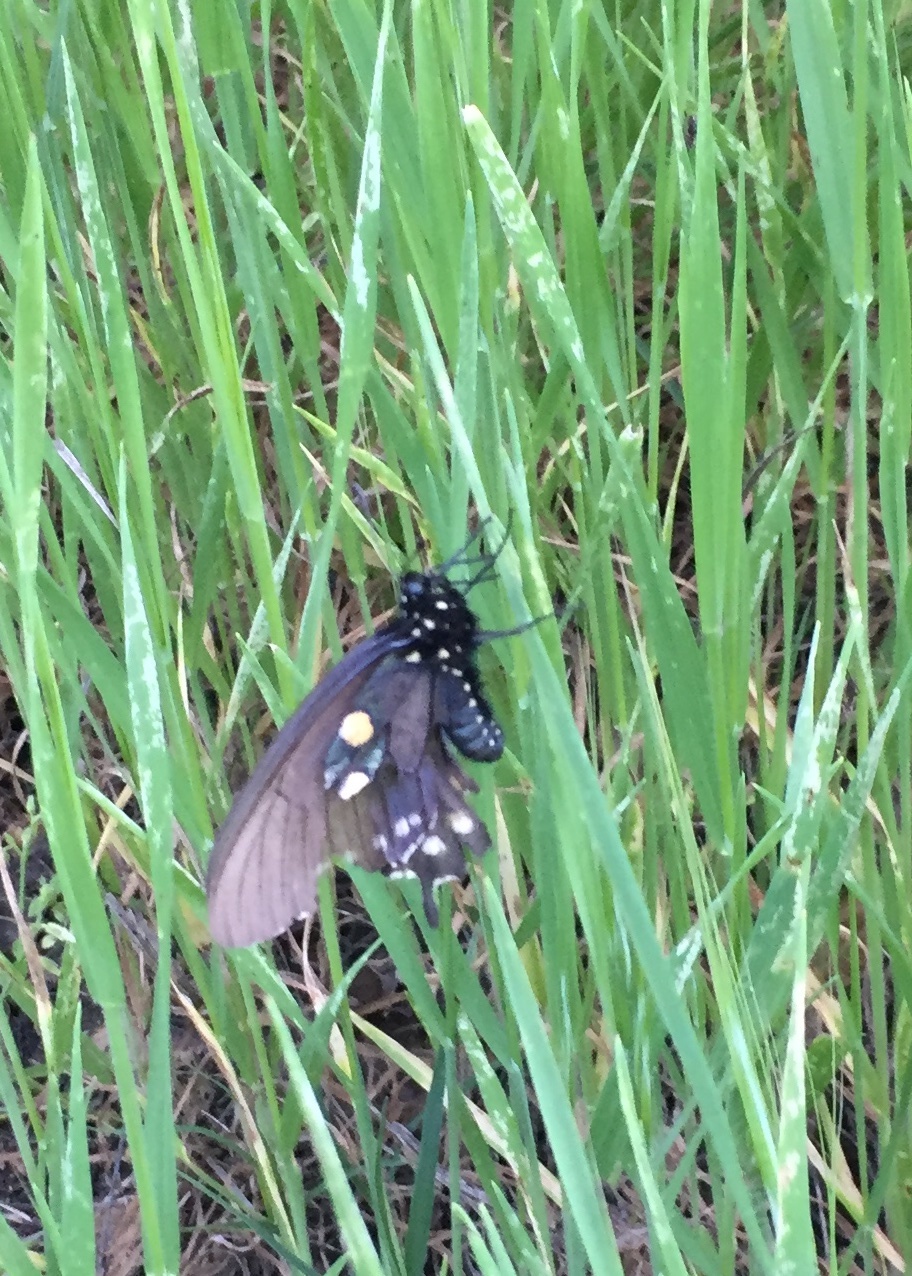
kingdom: Animalia
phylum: Arthropoda
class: Insecta
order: Lepidoptera
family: Papilionidae
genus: Battus
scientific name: Battus philenor
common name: Pipevine swallowtail
